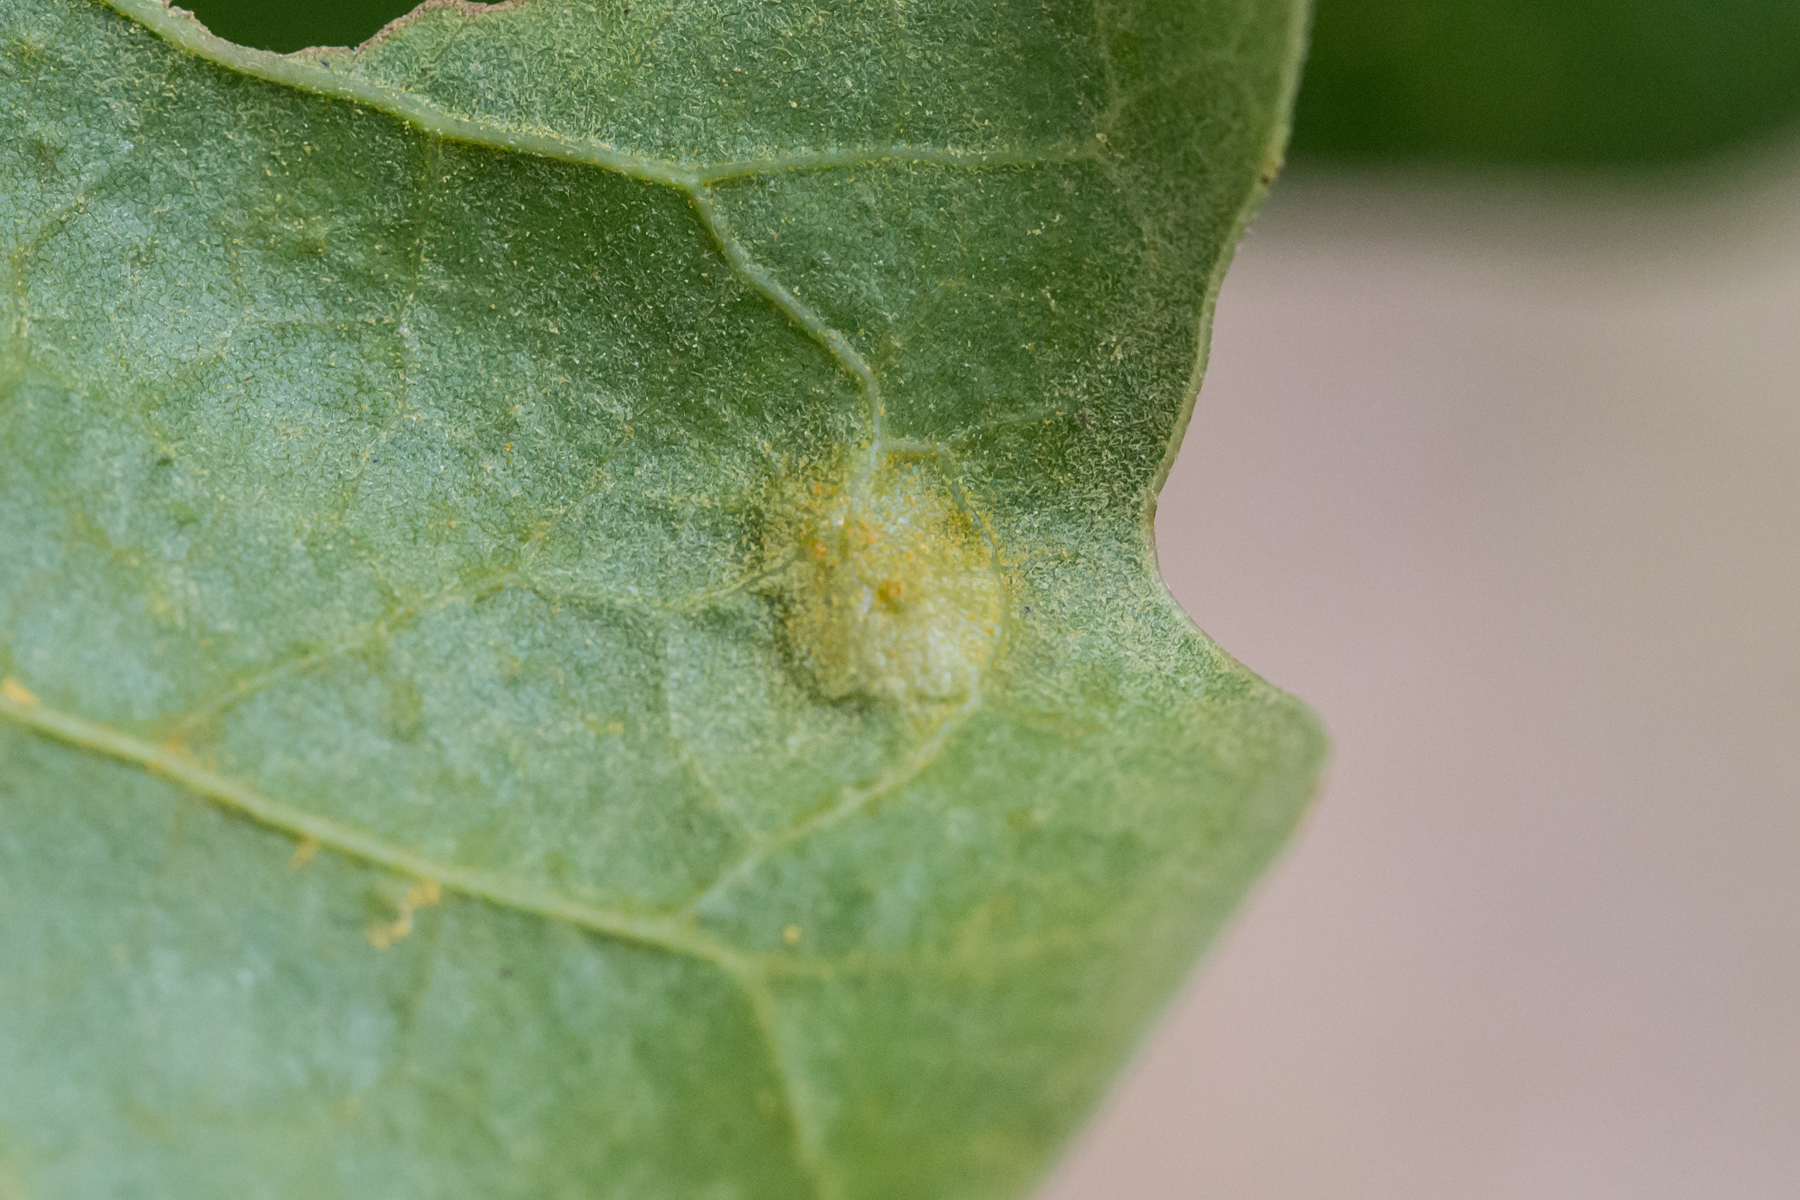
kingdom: Animalia
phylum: Arthropoda
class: Insecta
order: Diptera
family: Cecidomyiidae
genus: Polystepha
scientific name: Polystepha pilulae
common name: Oak leaf gall midge
